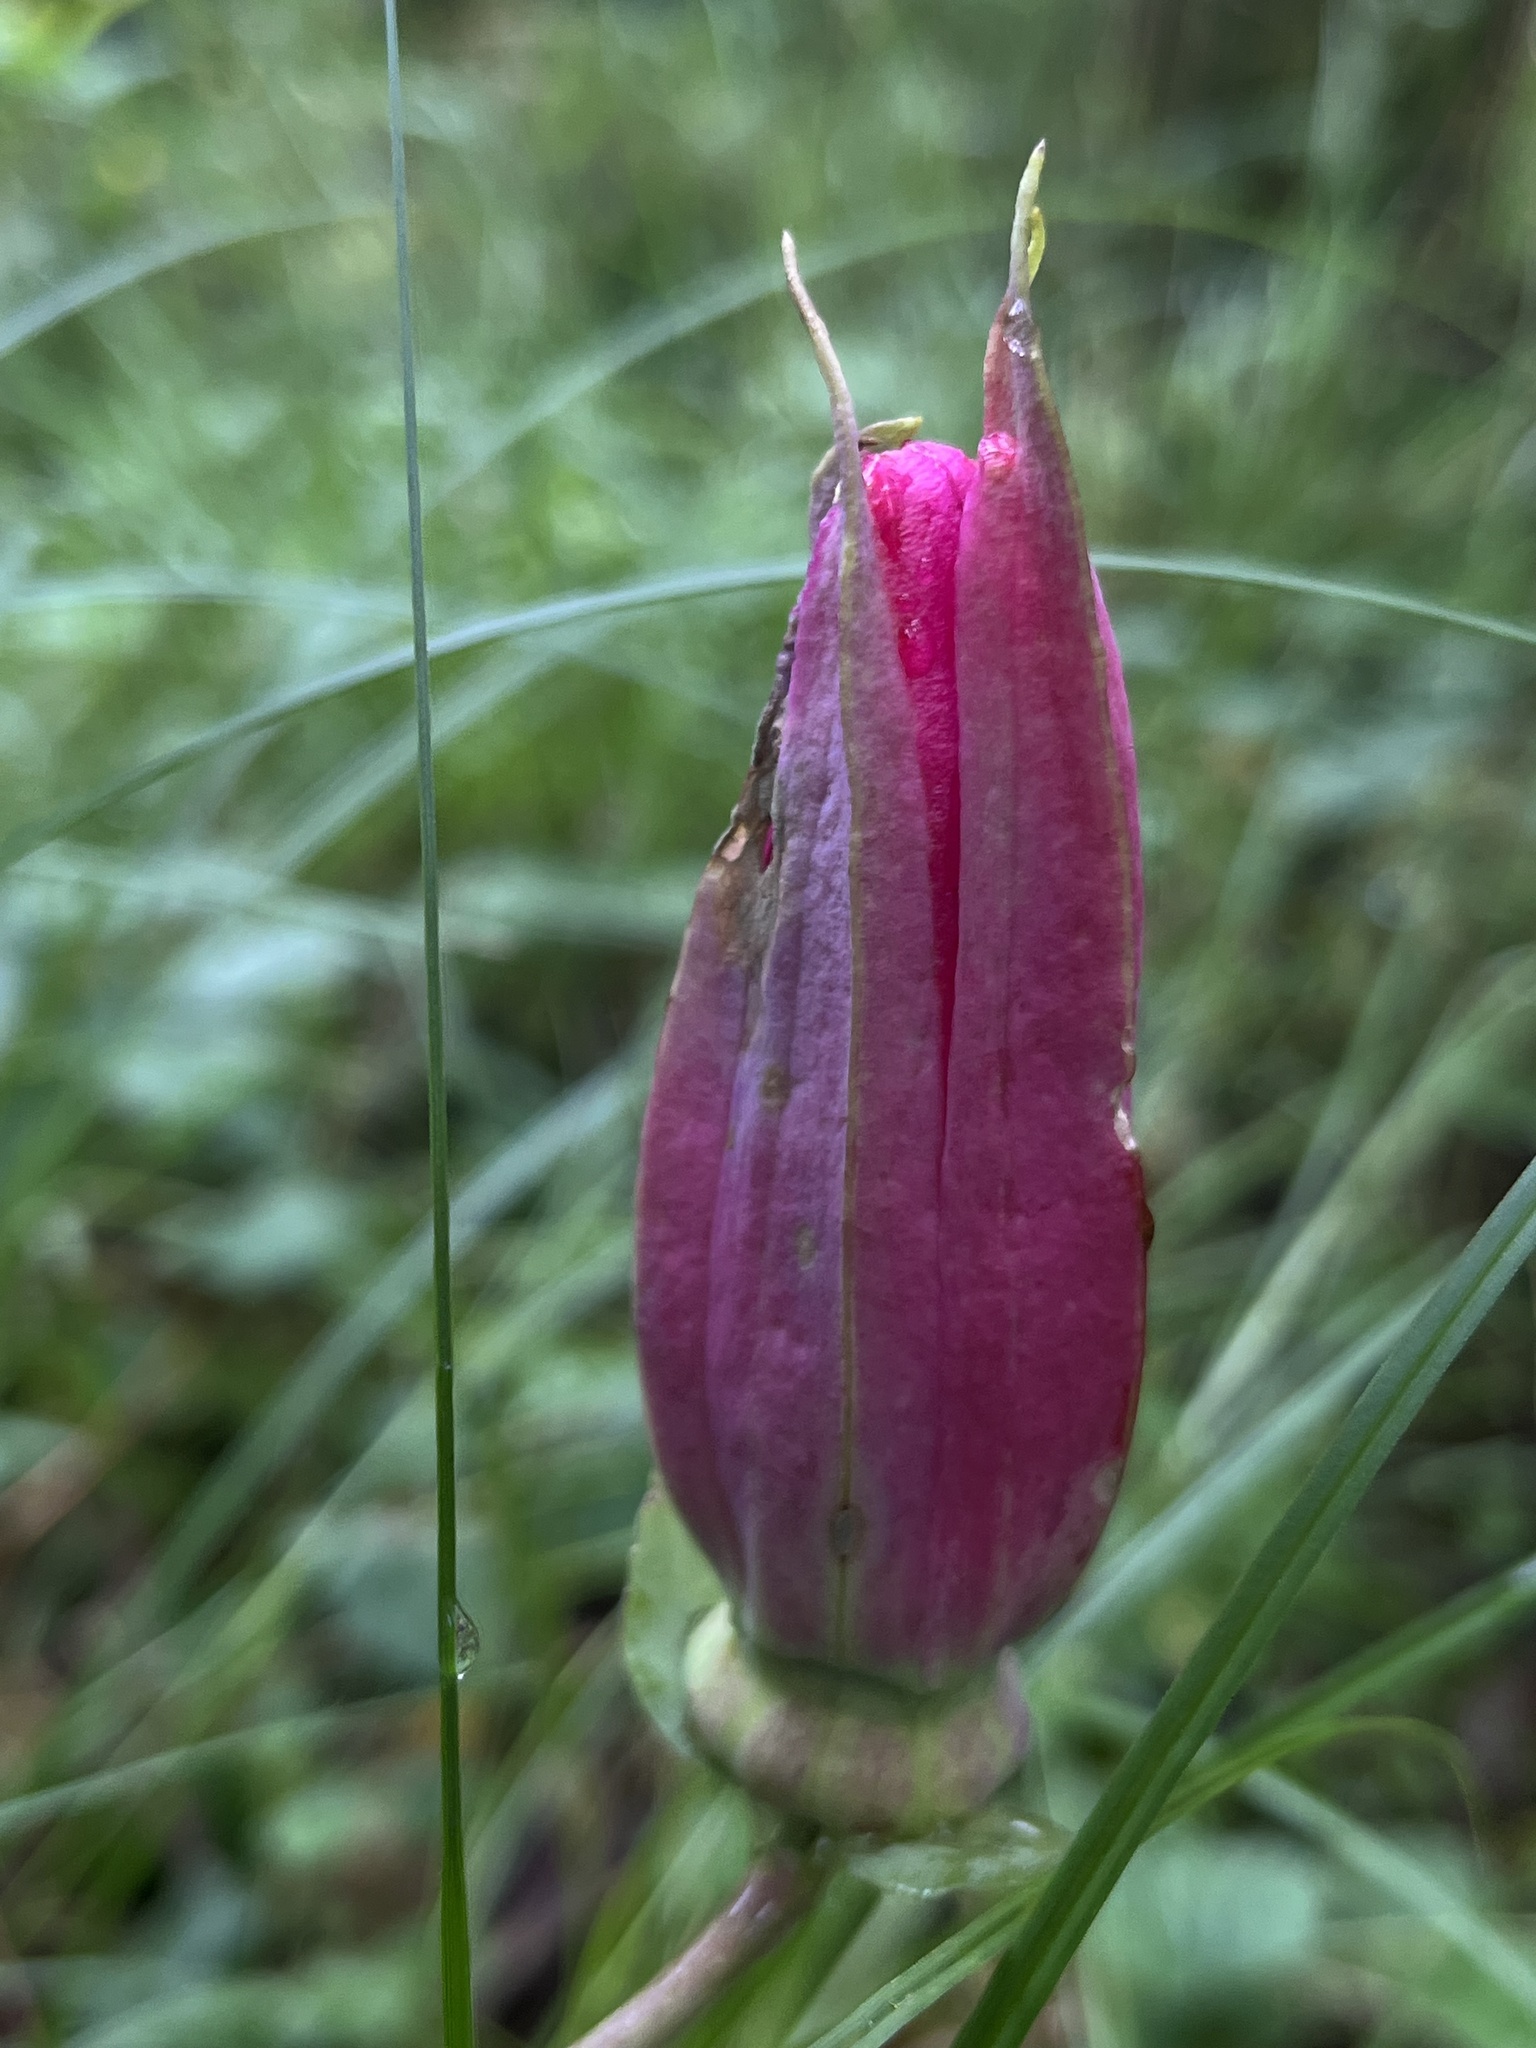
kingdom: Plantae
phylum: Tracheophyta
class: Magnoliopsida
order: Malpighiales
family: Passifloraceae
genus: Passiflora
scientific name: Passiflora longipes
